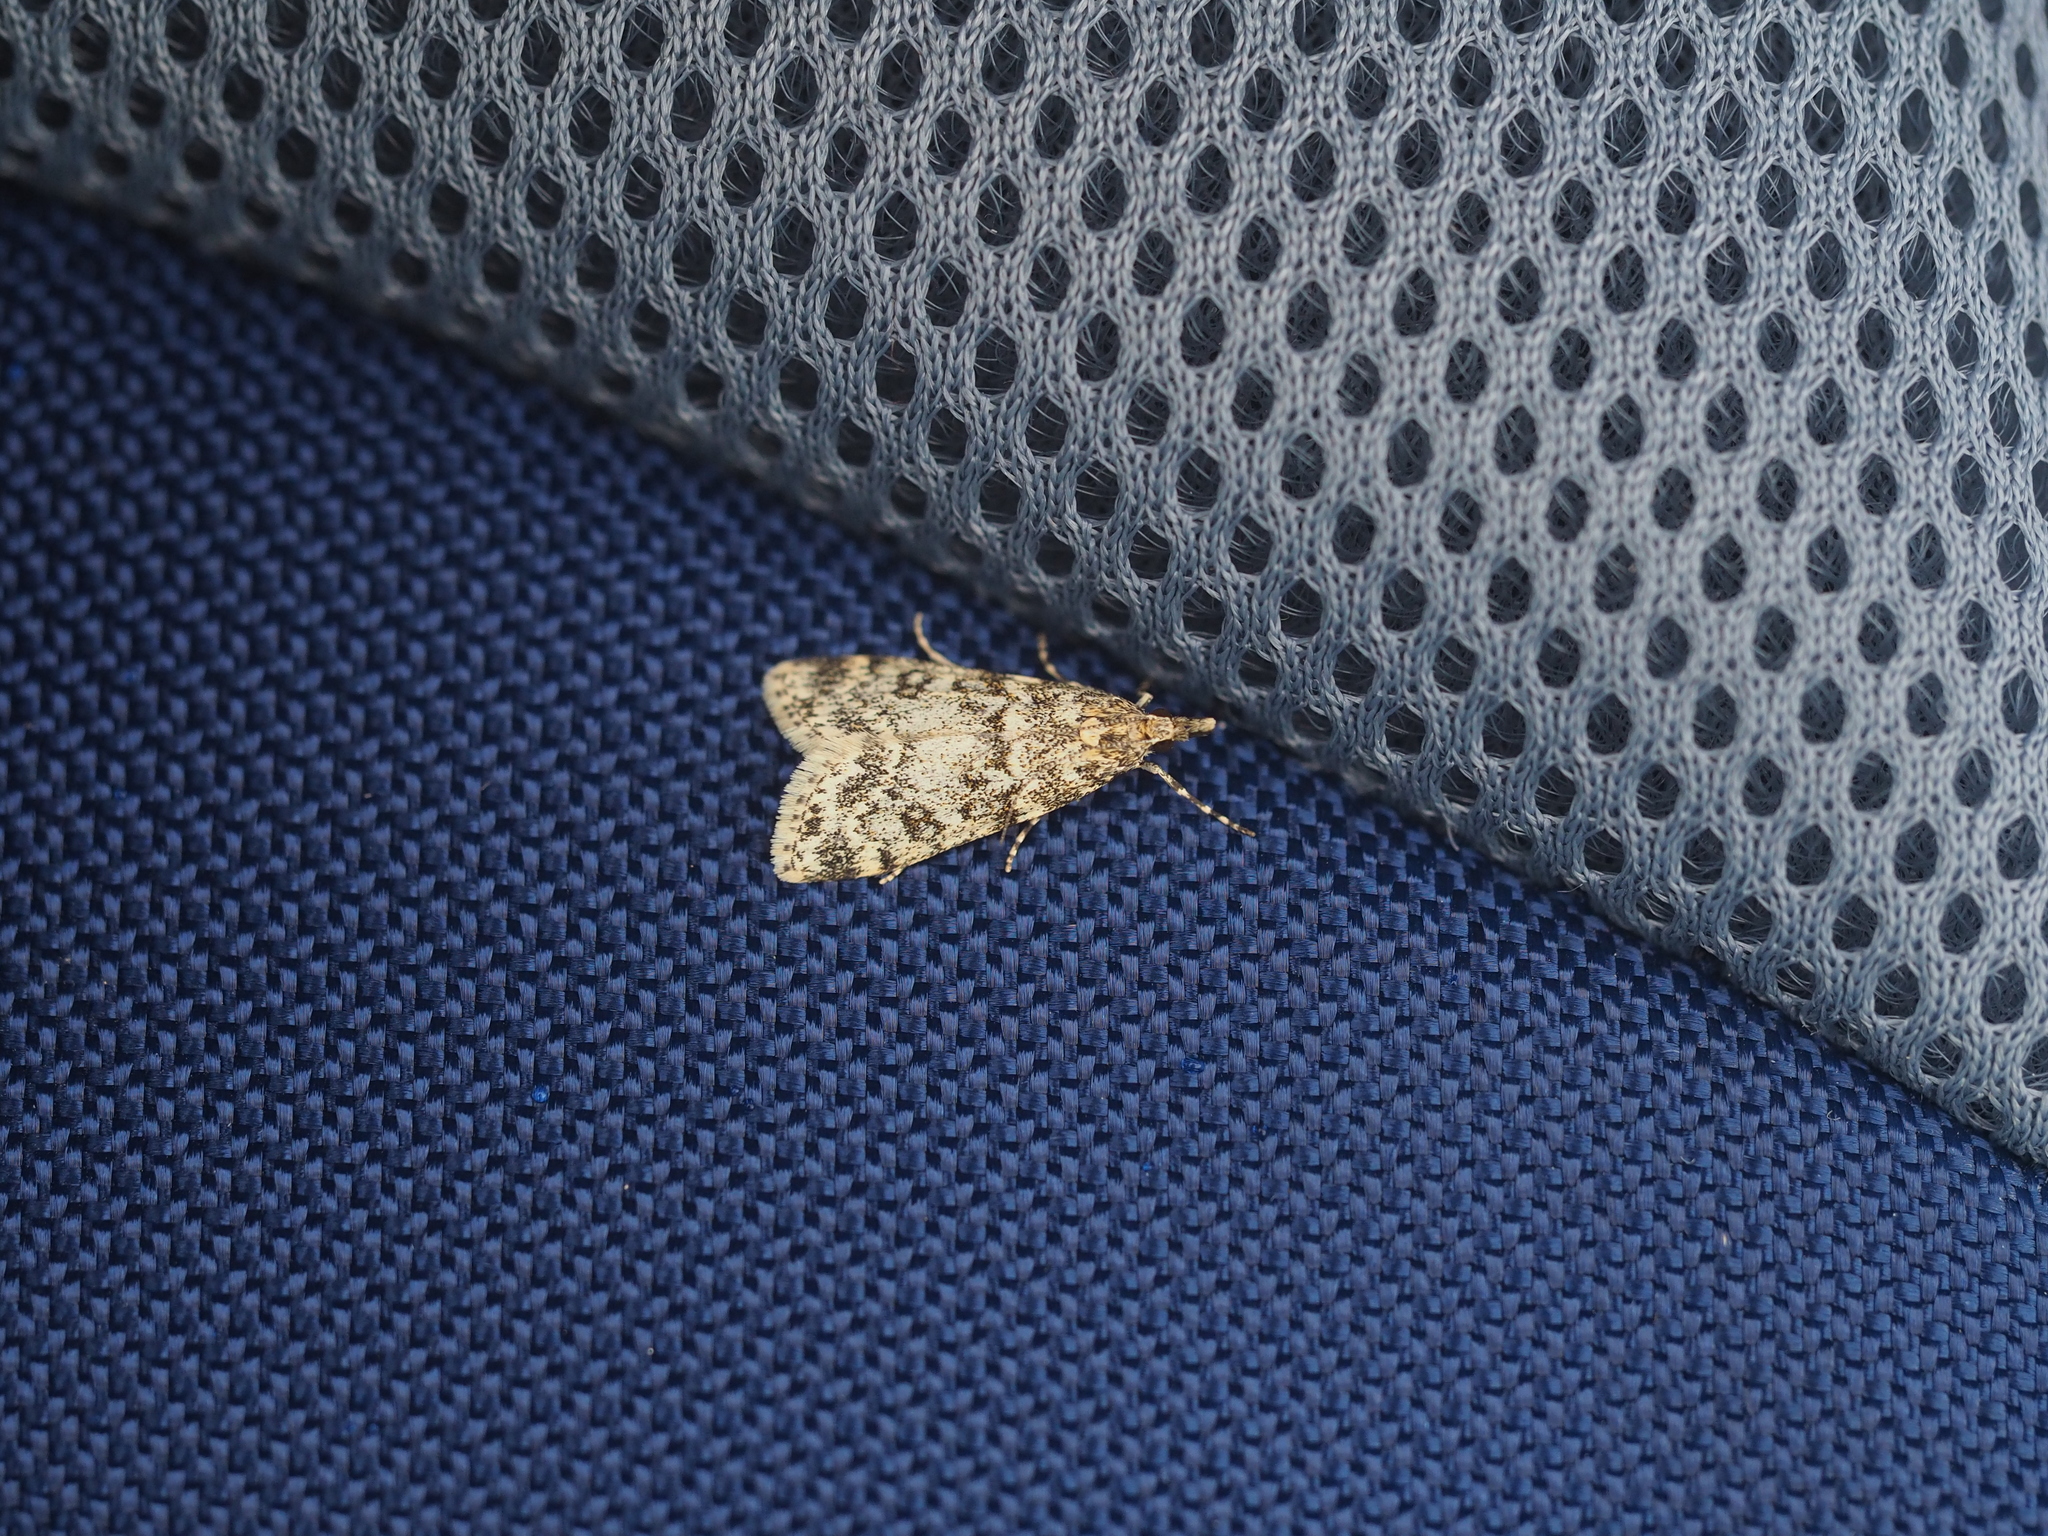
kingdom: Animalia
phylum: Arthropoda
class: Insecta
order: Lepidoptera
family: Crambidae
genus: Eudonia
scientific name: Eudonia lacustrata
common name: Little grey
